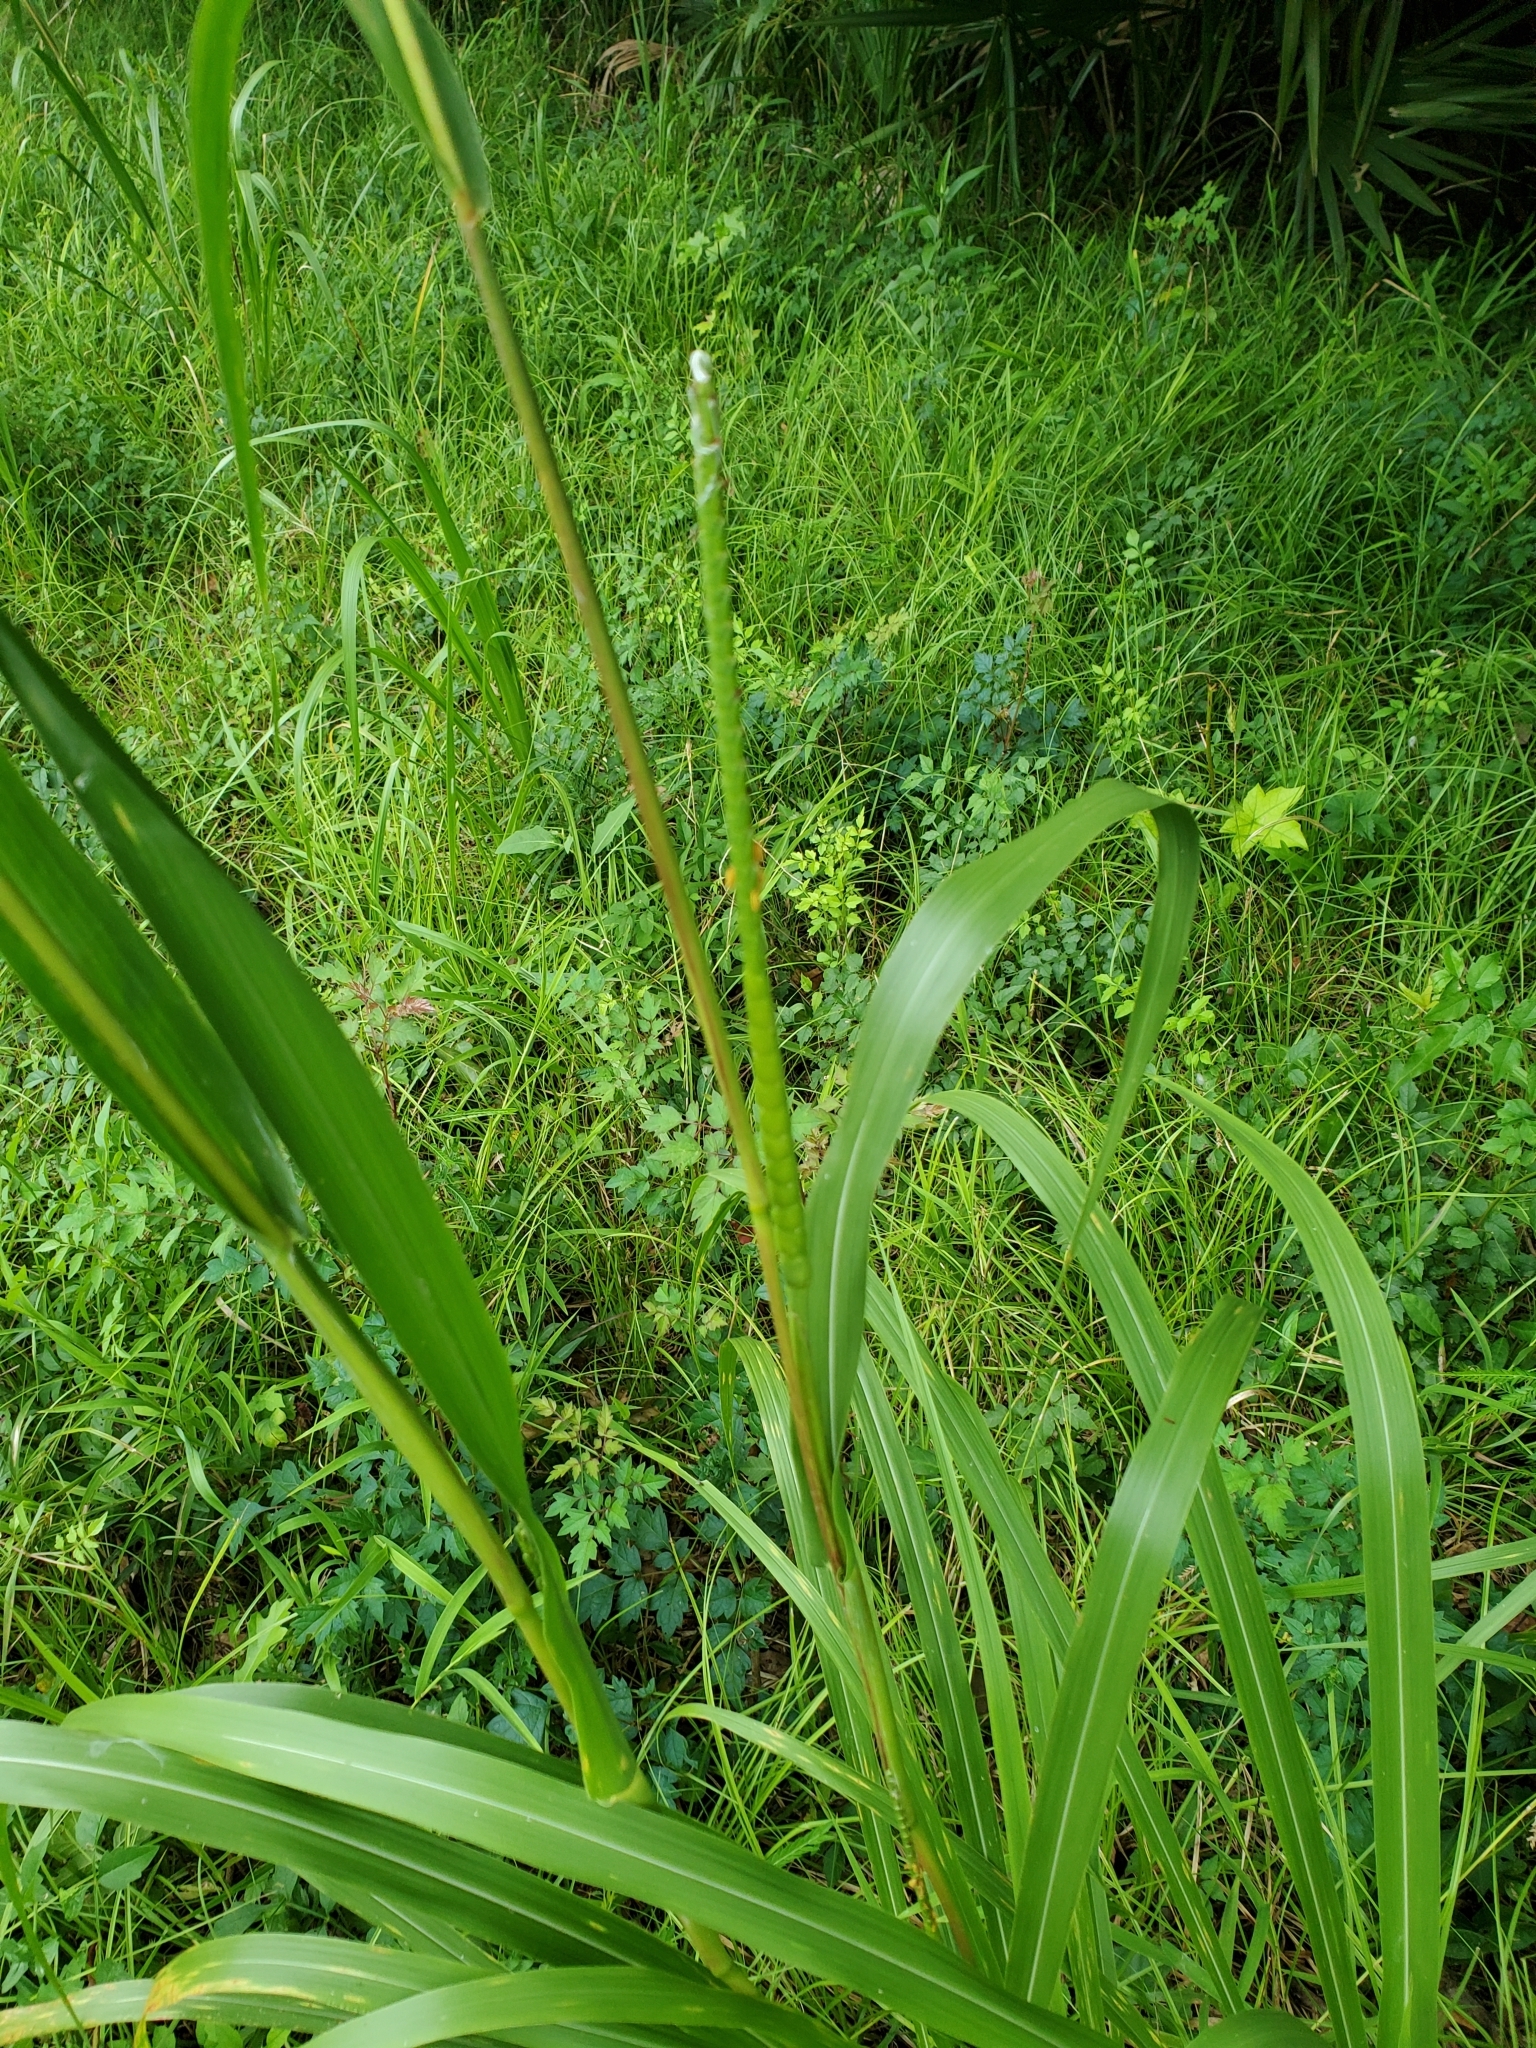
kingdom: Plantae
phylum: Tracheophyta
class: Liliopsida
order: Poales
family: Poaceae
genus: Tripsacum
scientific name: Tripsacum dactyloides
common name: Buffalo-grass
